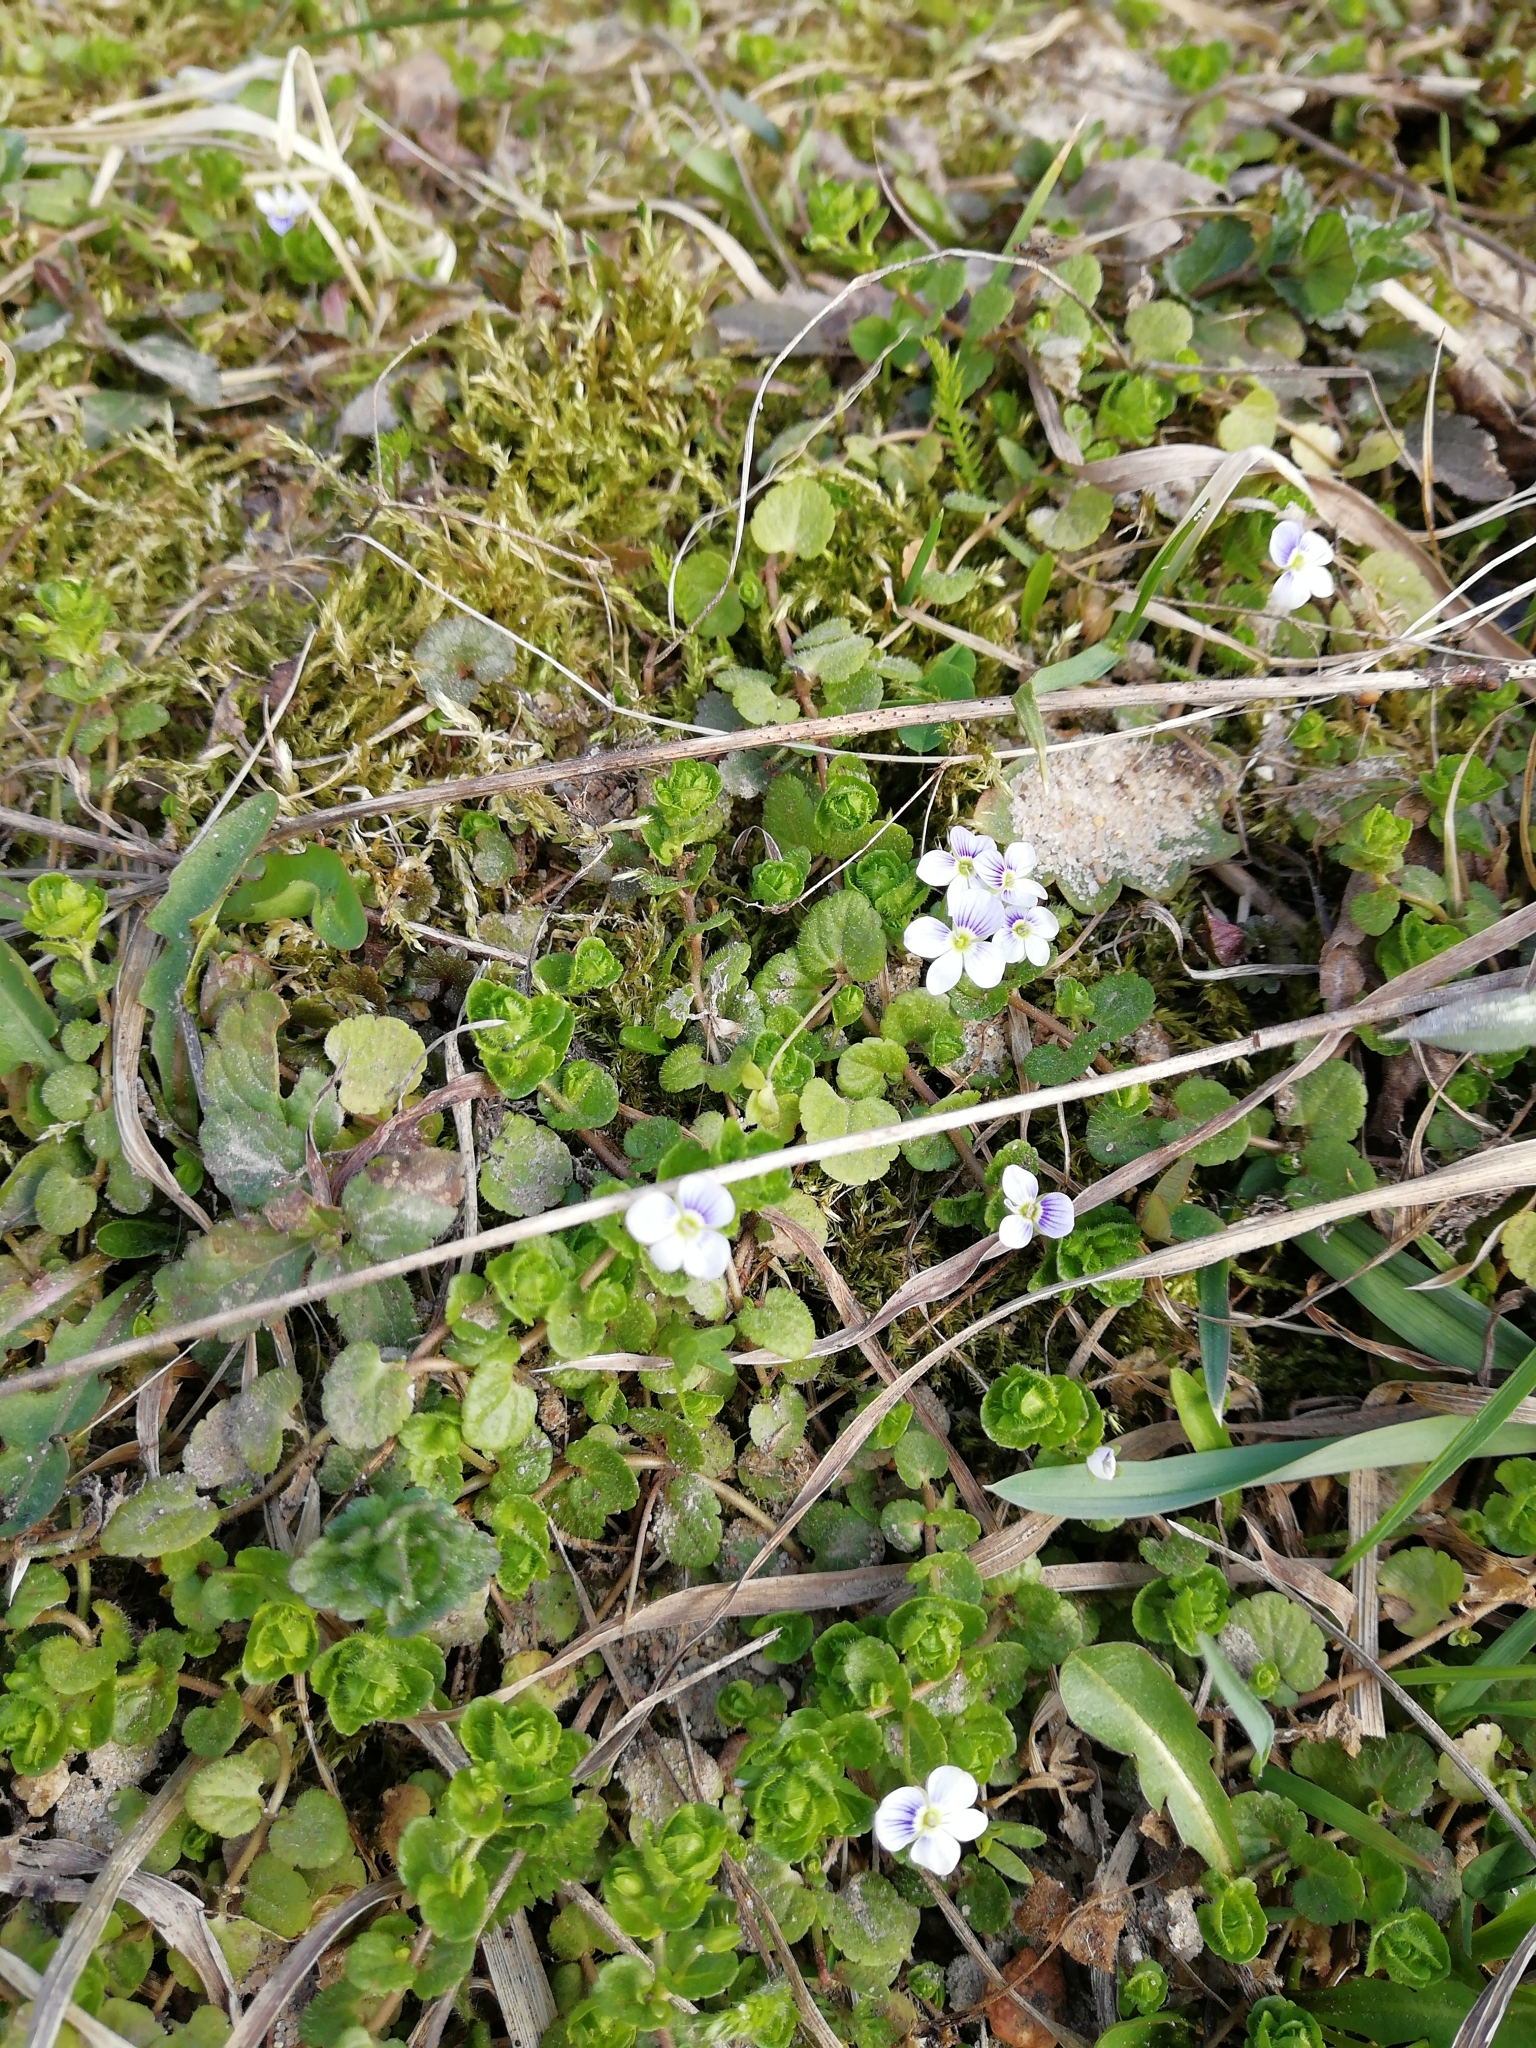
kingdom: Plantae
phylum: Tracheophyta
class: Magnoliopsida
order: Lamiales
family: Plantaginaceae
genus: Veronica
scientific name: Veronica filiformis
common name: Slender speedwell
